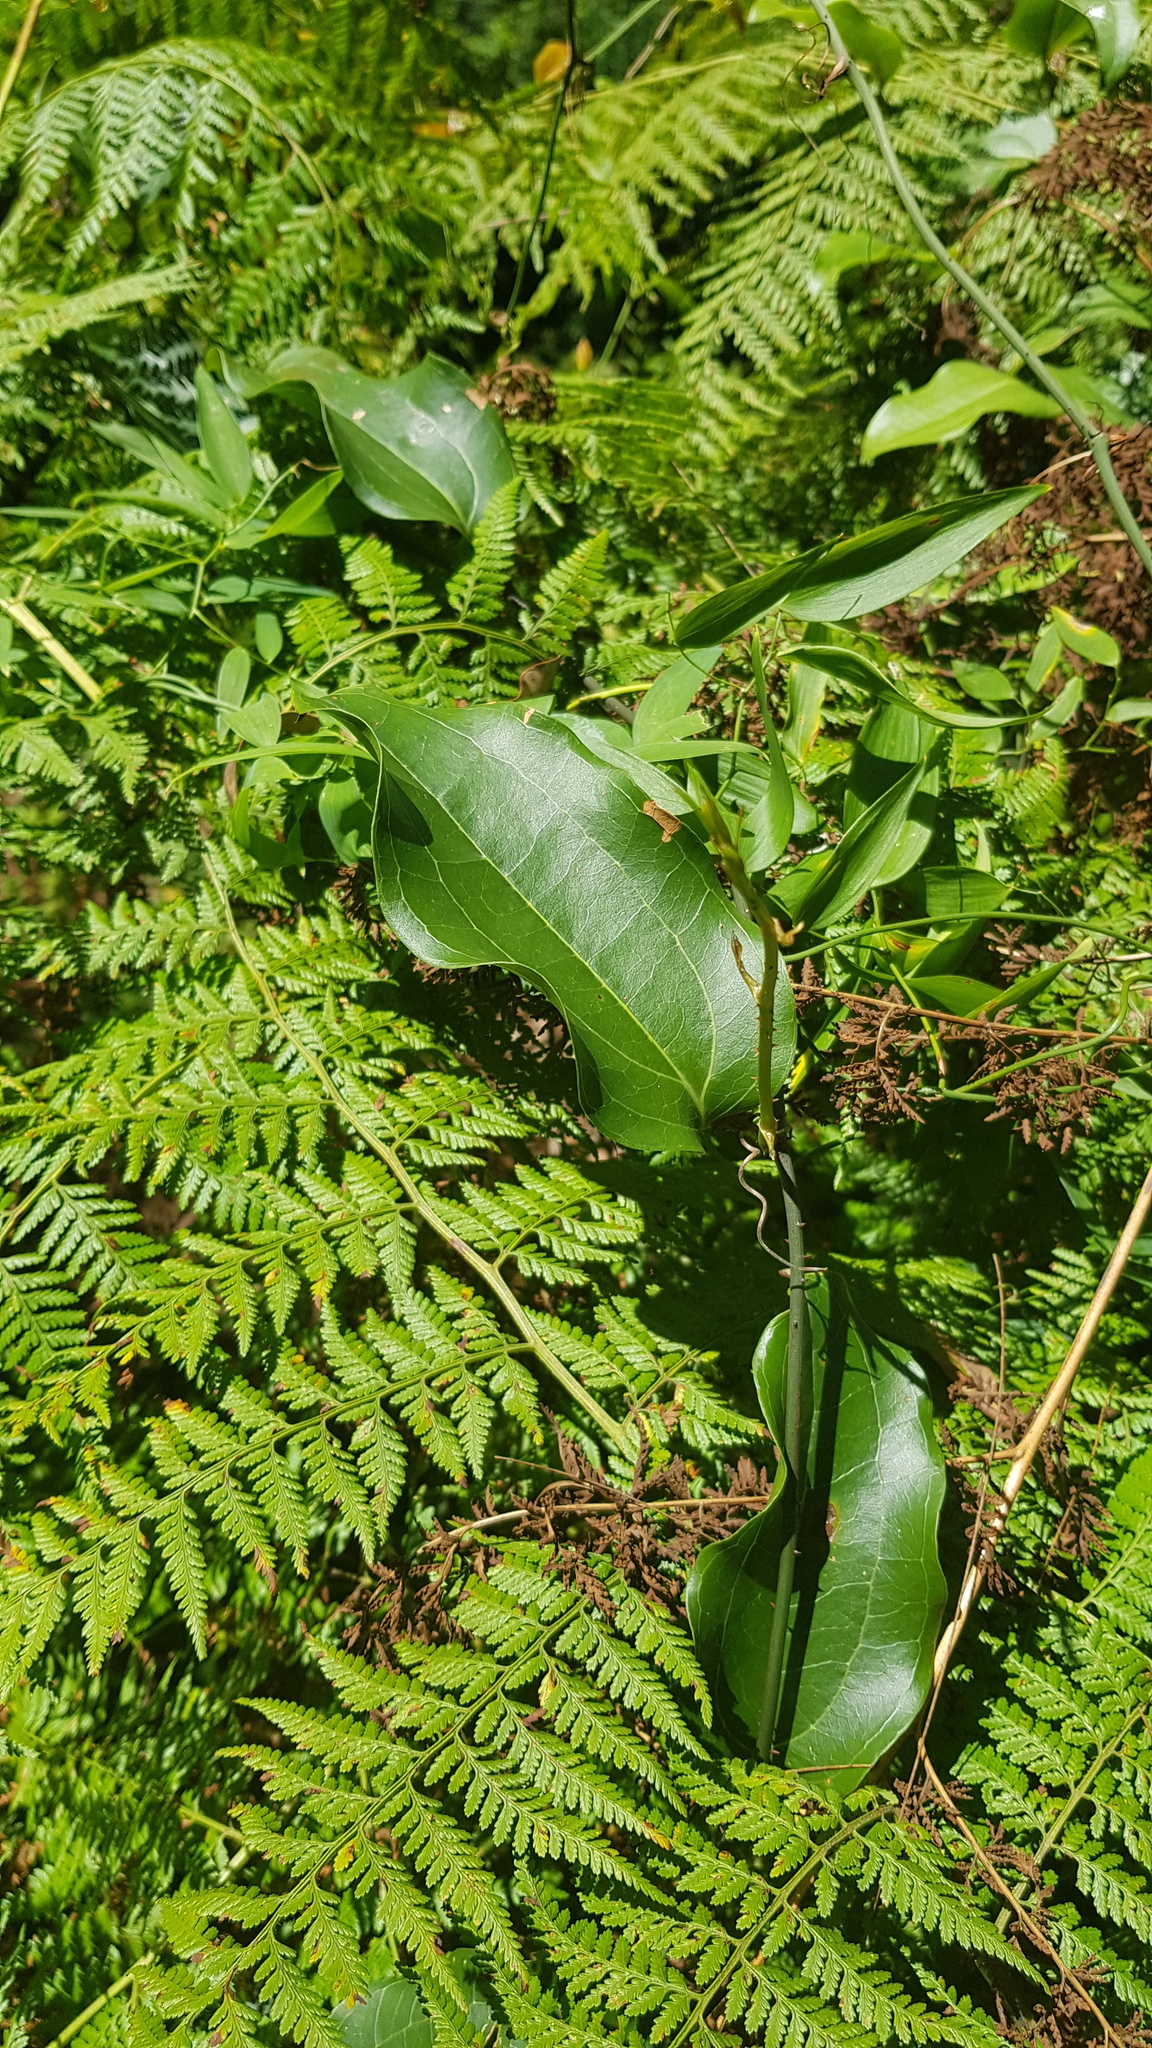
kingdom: Plantae
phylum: Tracheophyta
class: Liliopsida
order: Liliales
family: Smilacaceae
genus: Smilax
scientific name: Smilax australis
